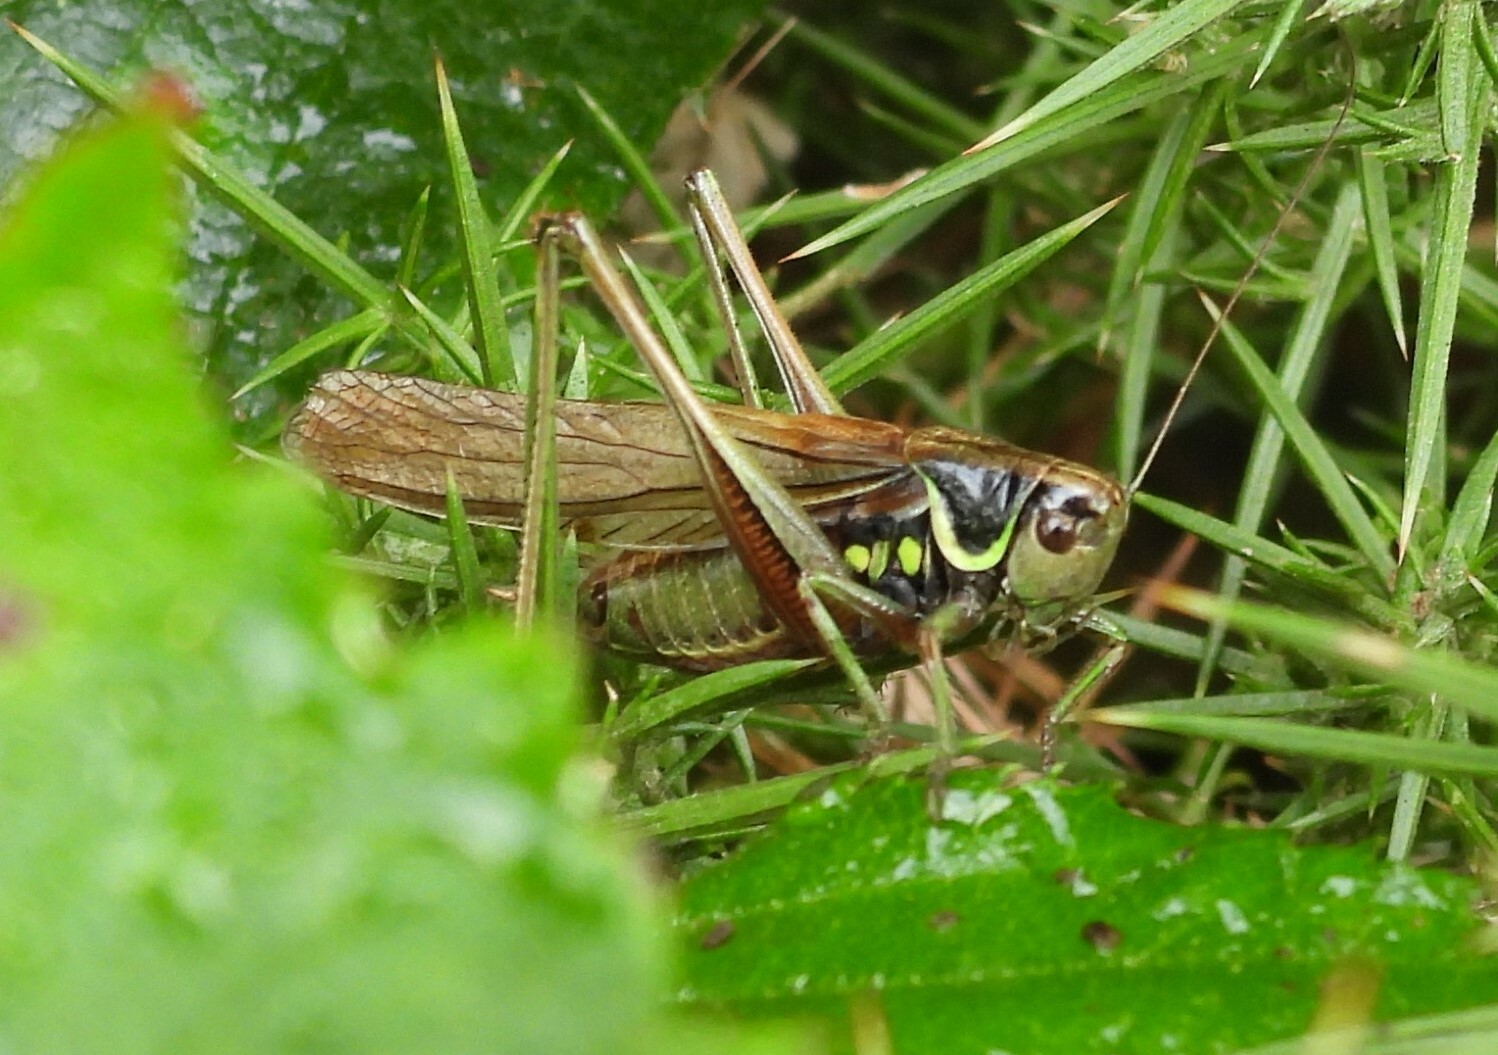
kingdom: Animalia
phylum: Arthropoda
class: Insecta
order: Orthoptera
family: Tettigoniidae
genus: Roeseliana
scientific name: Roeseliana roeselii
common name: Roesel's bush cricket
